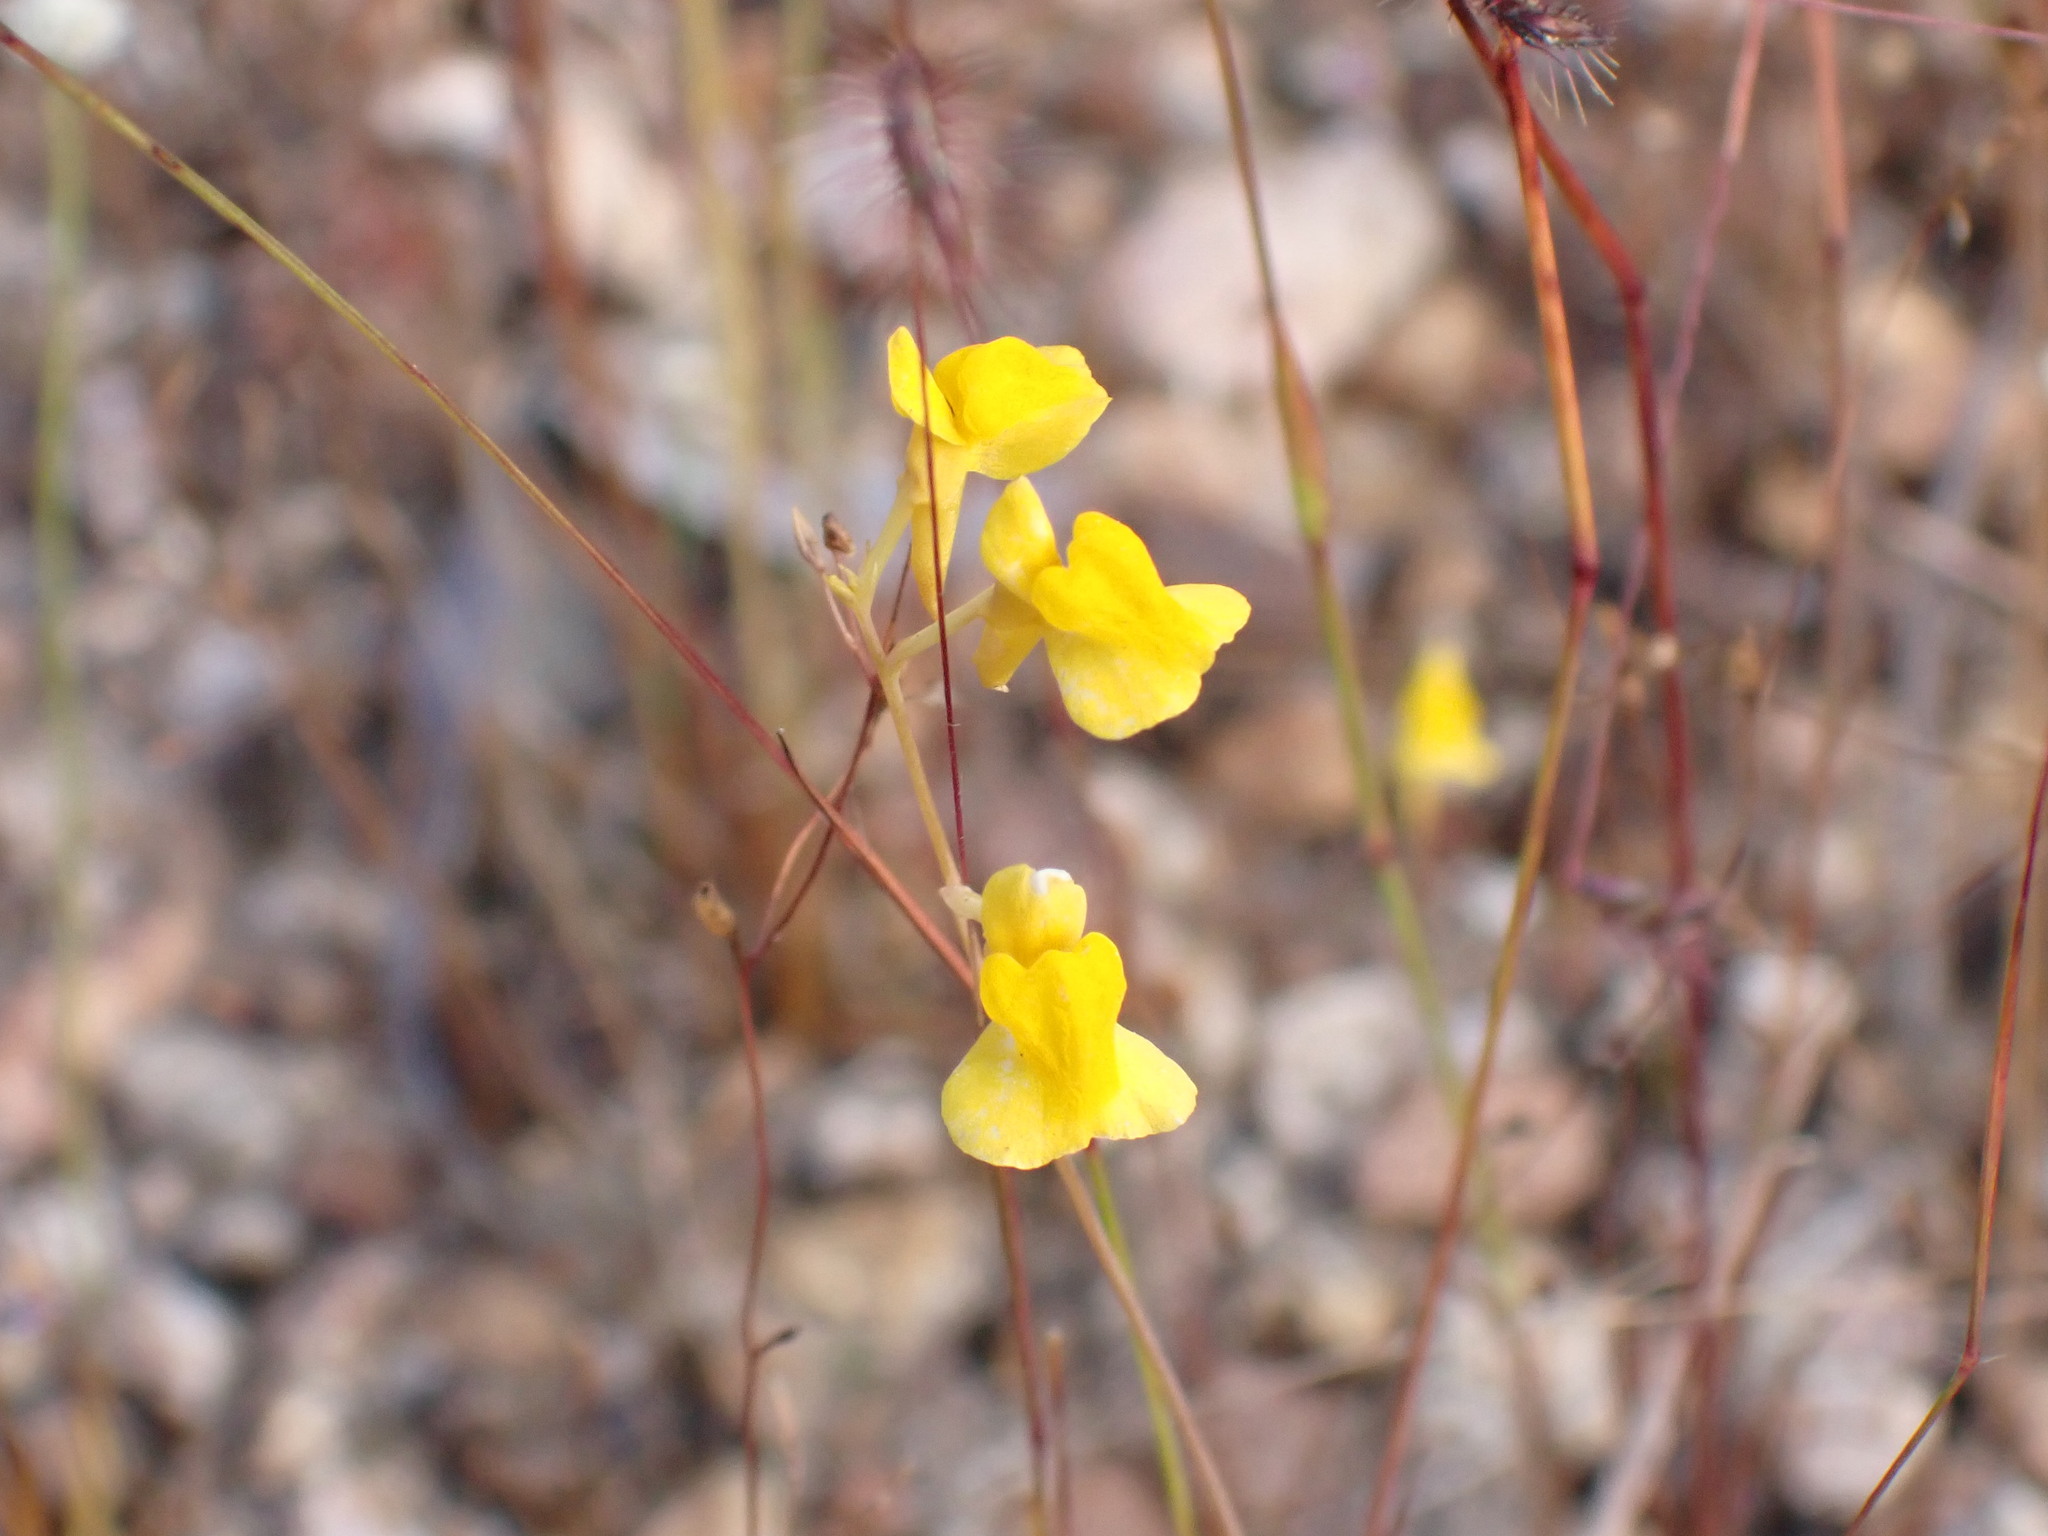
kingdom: Plantae
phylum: Tracheophyta
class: Magnoliopsida
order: Lamiales
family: Lentibulariaceae
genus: Utricularia
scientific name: Utricularia odorata
